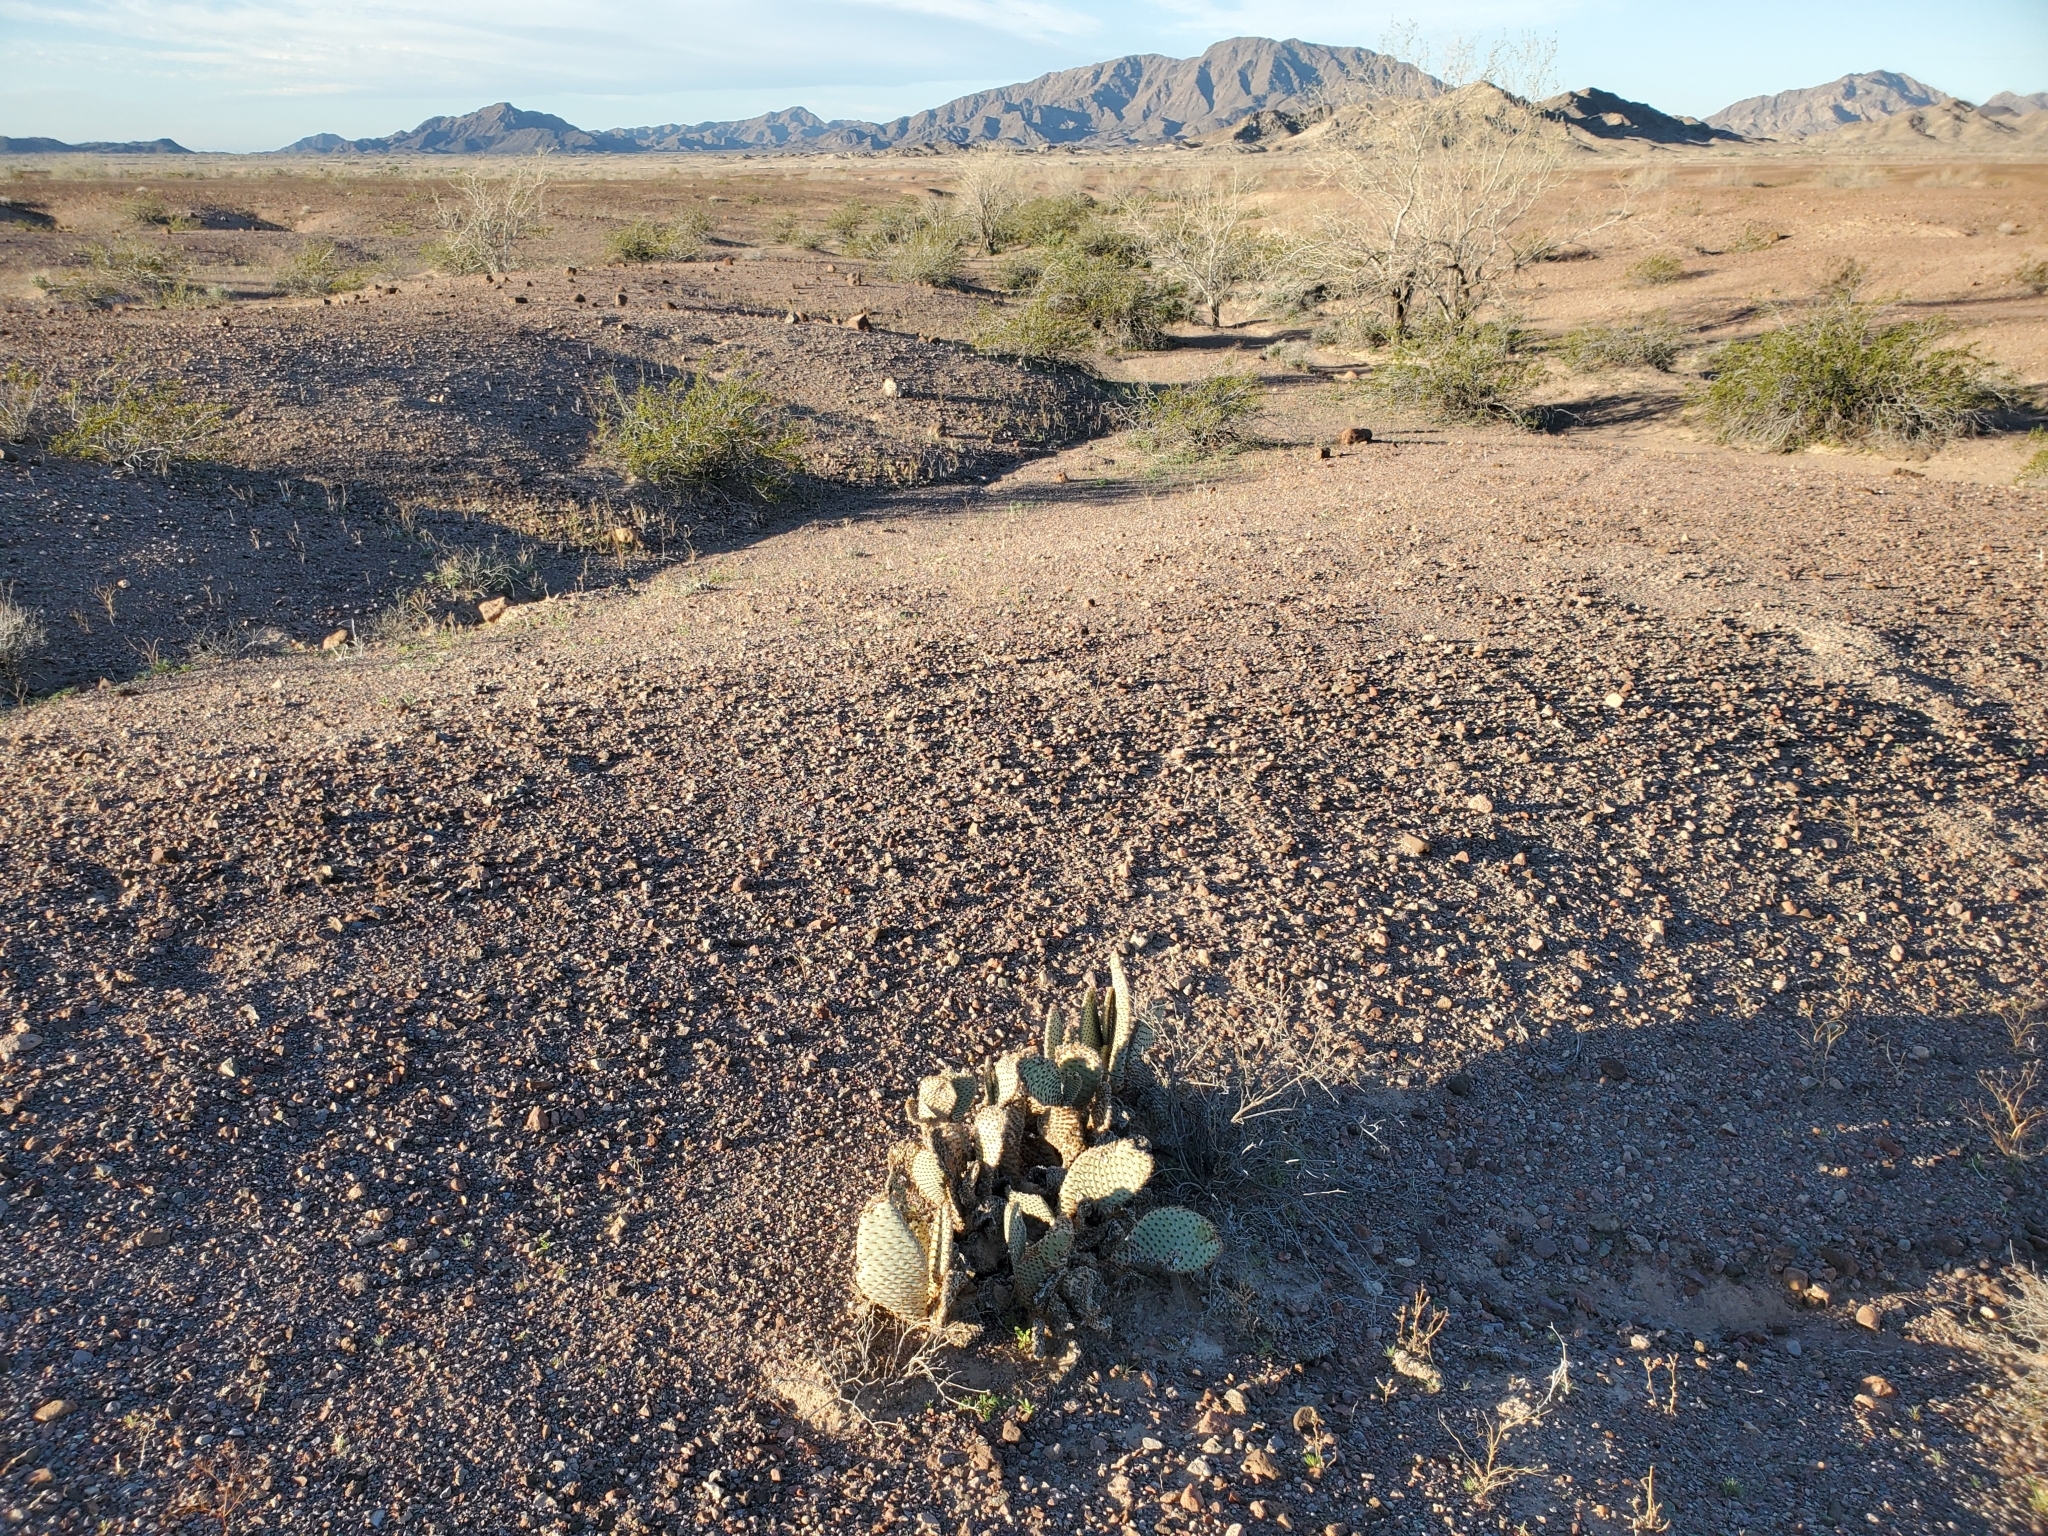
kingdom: Plantae
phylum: Tracheophyta
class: Magnoliopsida
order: Caryophyllales
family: Cactaceae
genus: Opuntia
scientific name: Opuntia basilaris
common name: Beavertail prickly-pear
